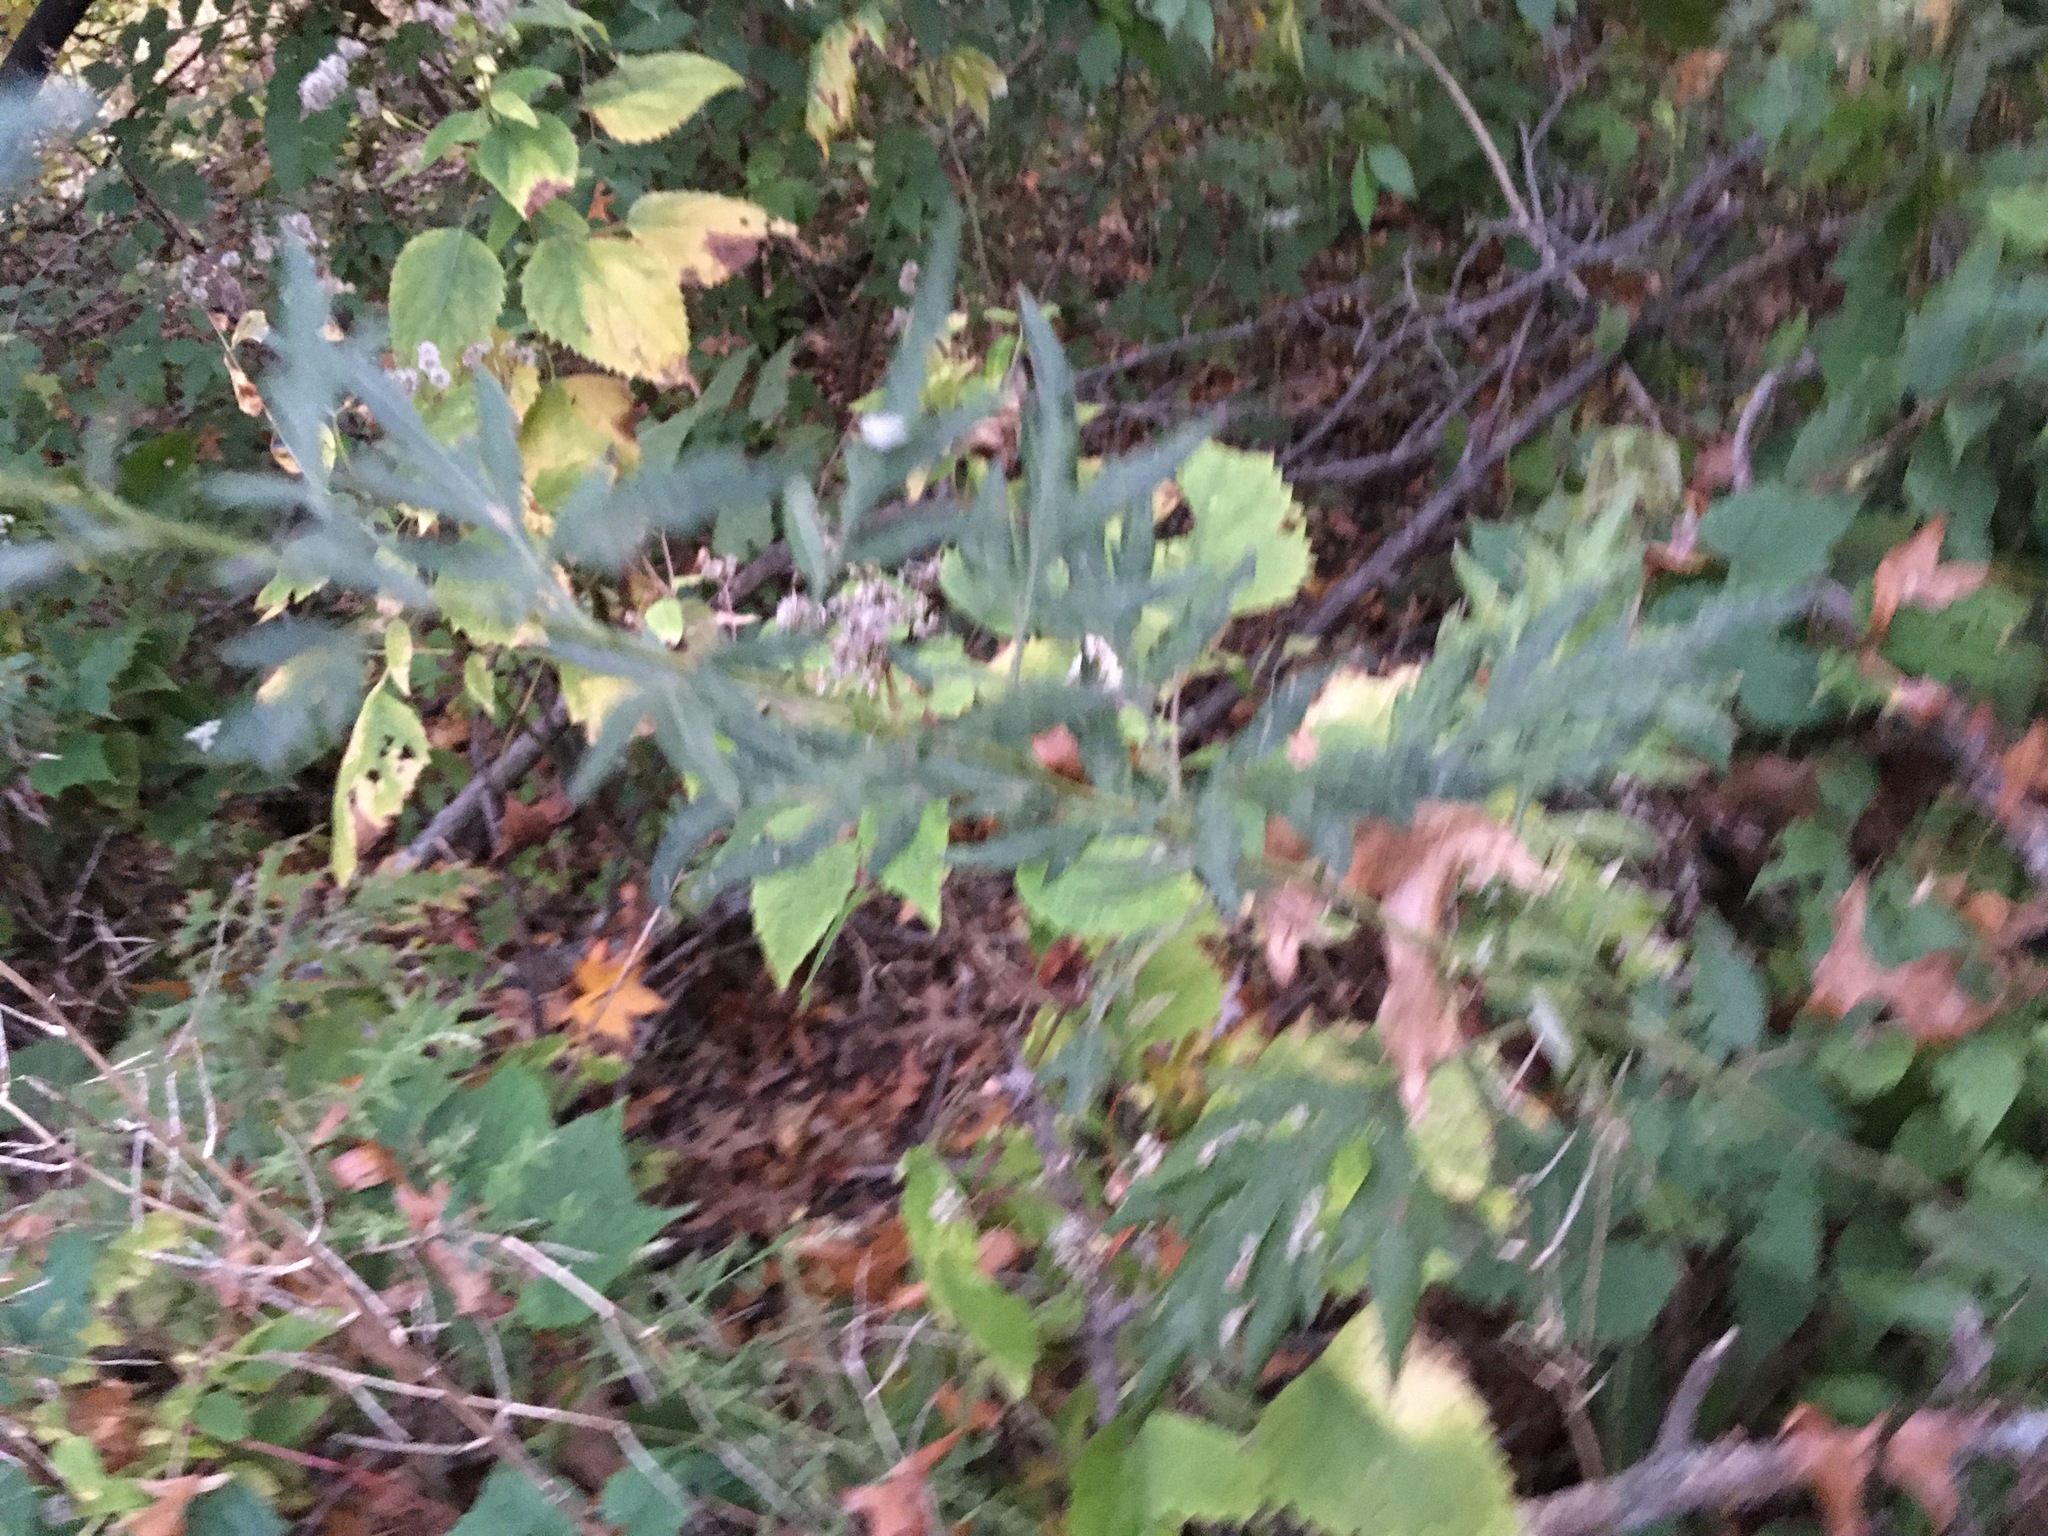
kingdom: Plantae
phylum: Tracheophyta
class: Magnoliopsida
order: Asterales
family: Asteraceae
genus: Artemisia
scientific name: Artemisia vulgaris
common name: Mugwort
